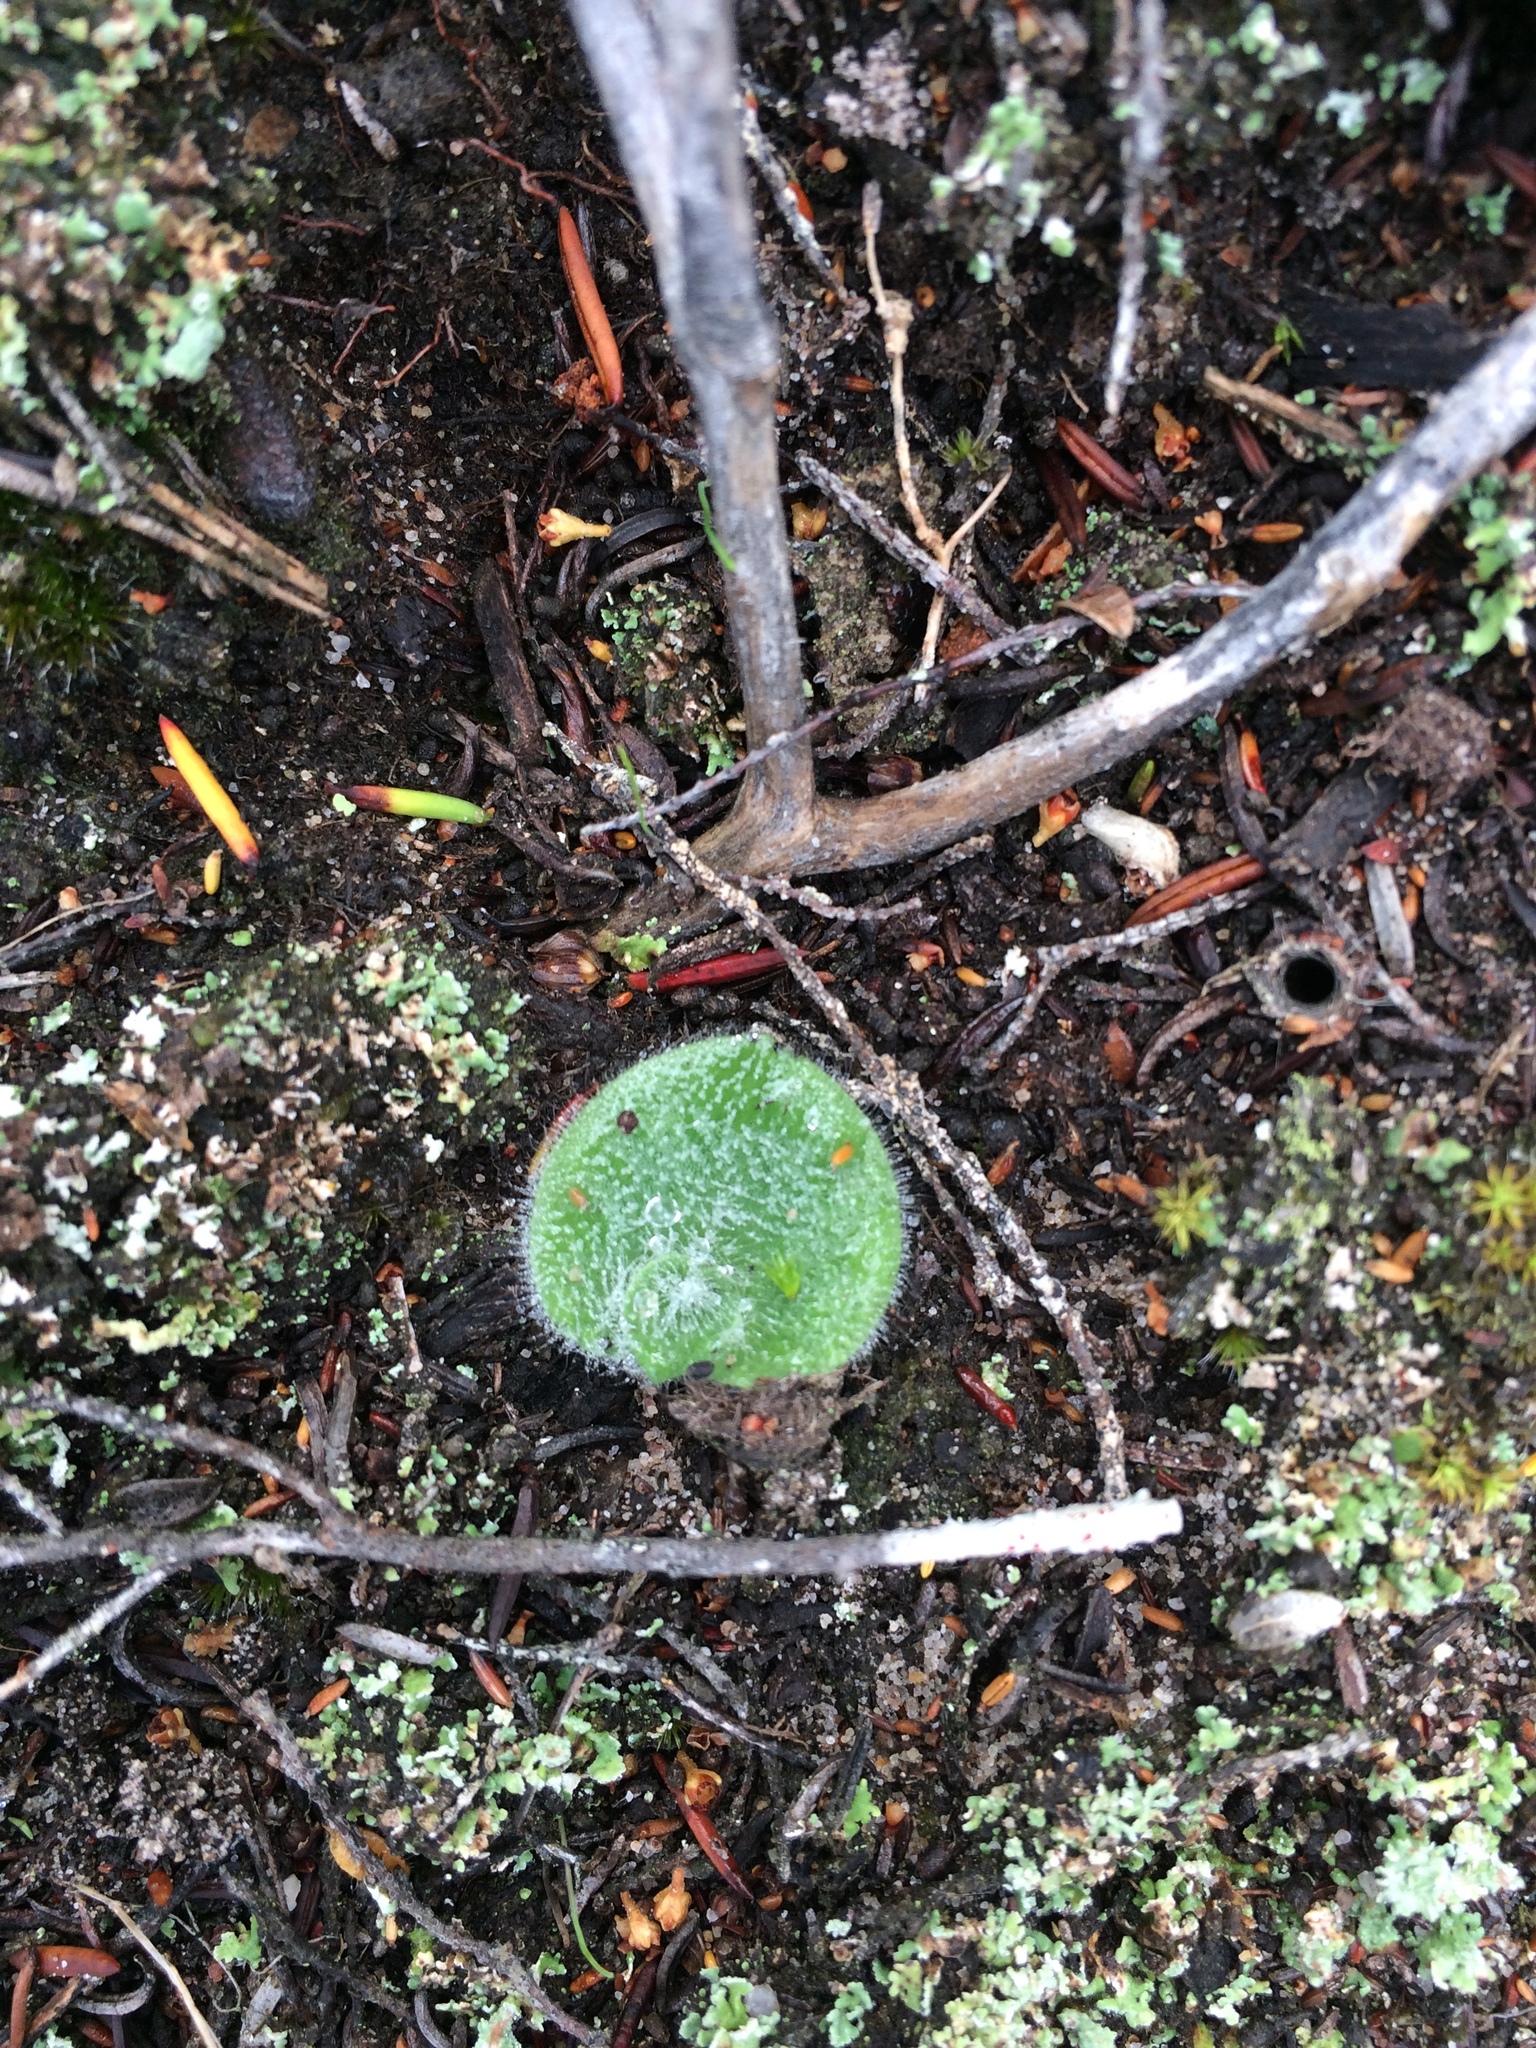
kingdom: Plantae
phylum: Tracheophyta
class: Liliopsida
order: Asparagales
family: Orchidaceae
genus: Holothrix
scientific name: Holothrix villosa
